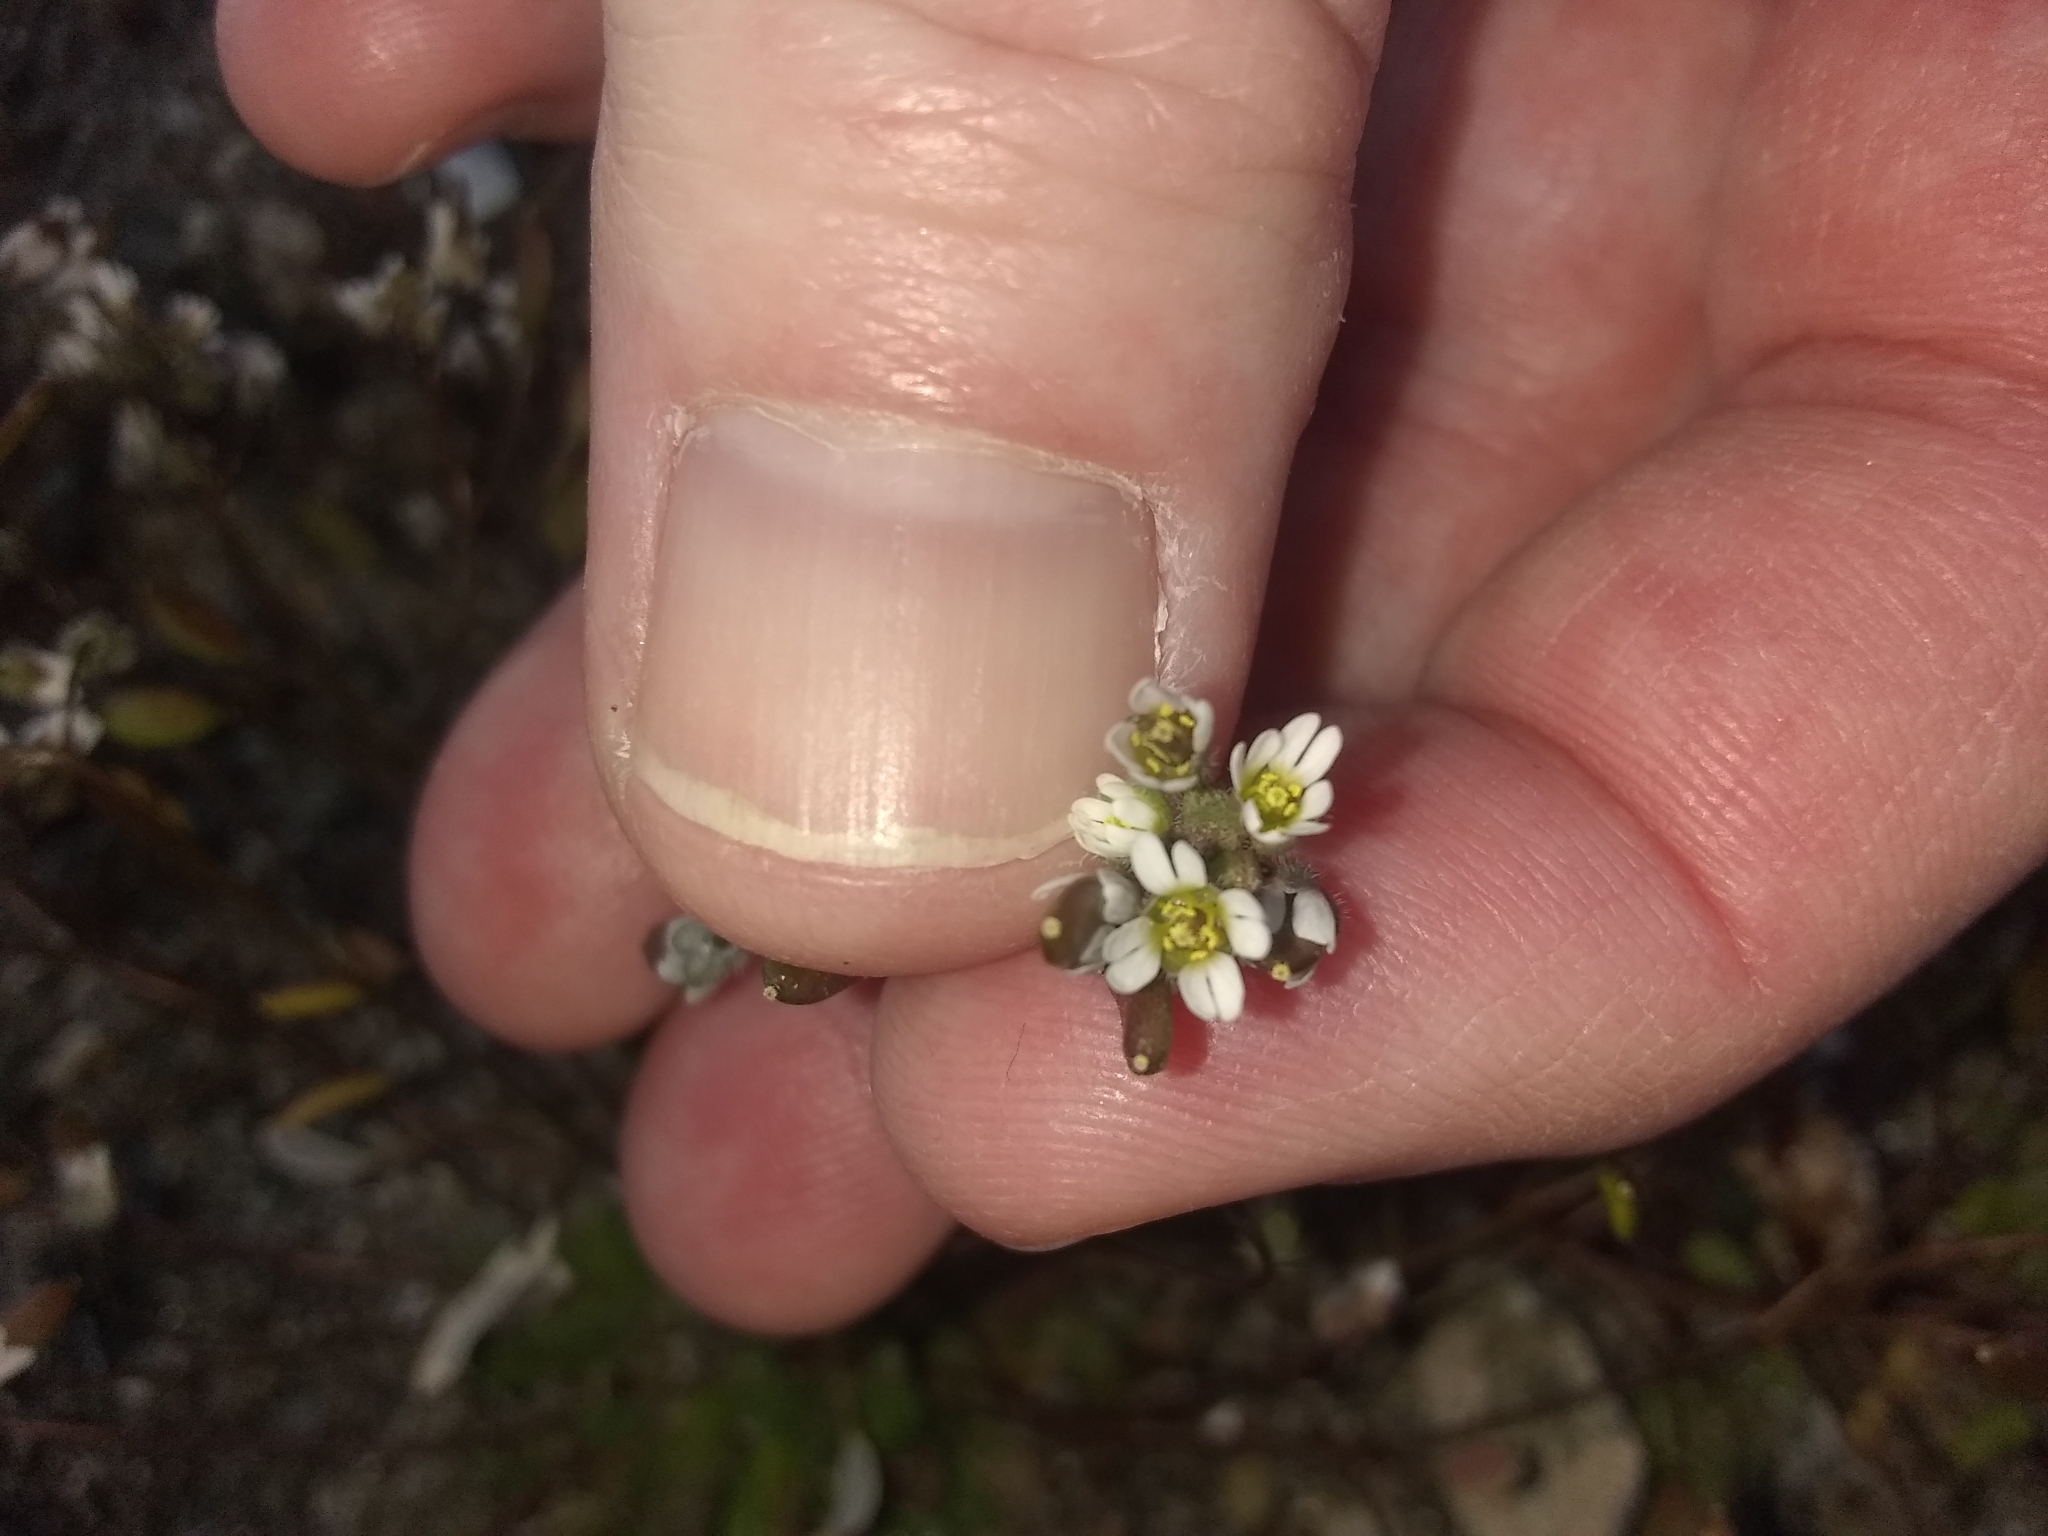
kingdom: Plantae
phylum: Tracheophyta
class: Magnoliopsida
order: Brassicales
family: Brassicaceae
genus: Draba
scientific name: Draba verna
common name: Spring draba
